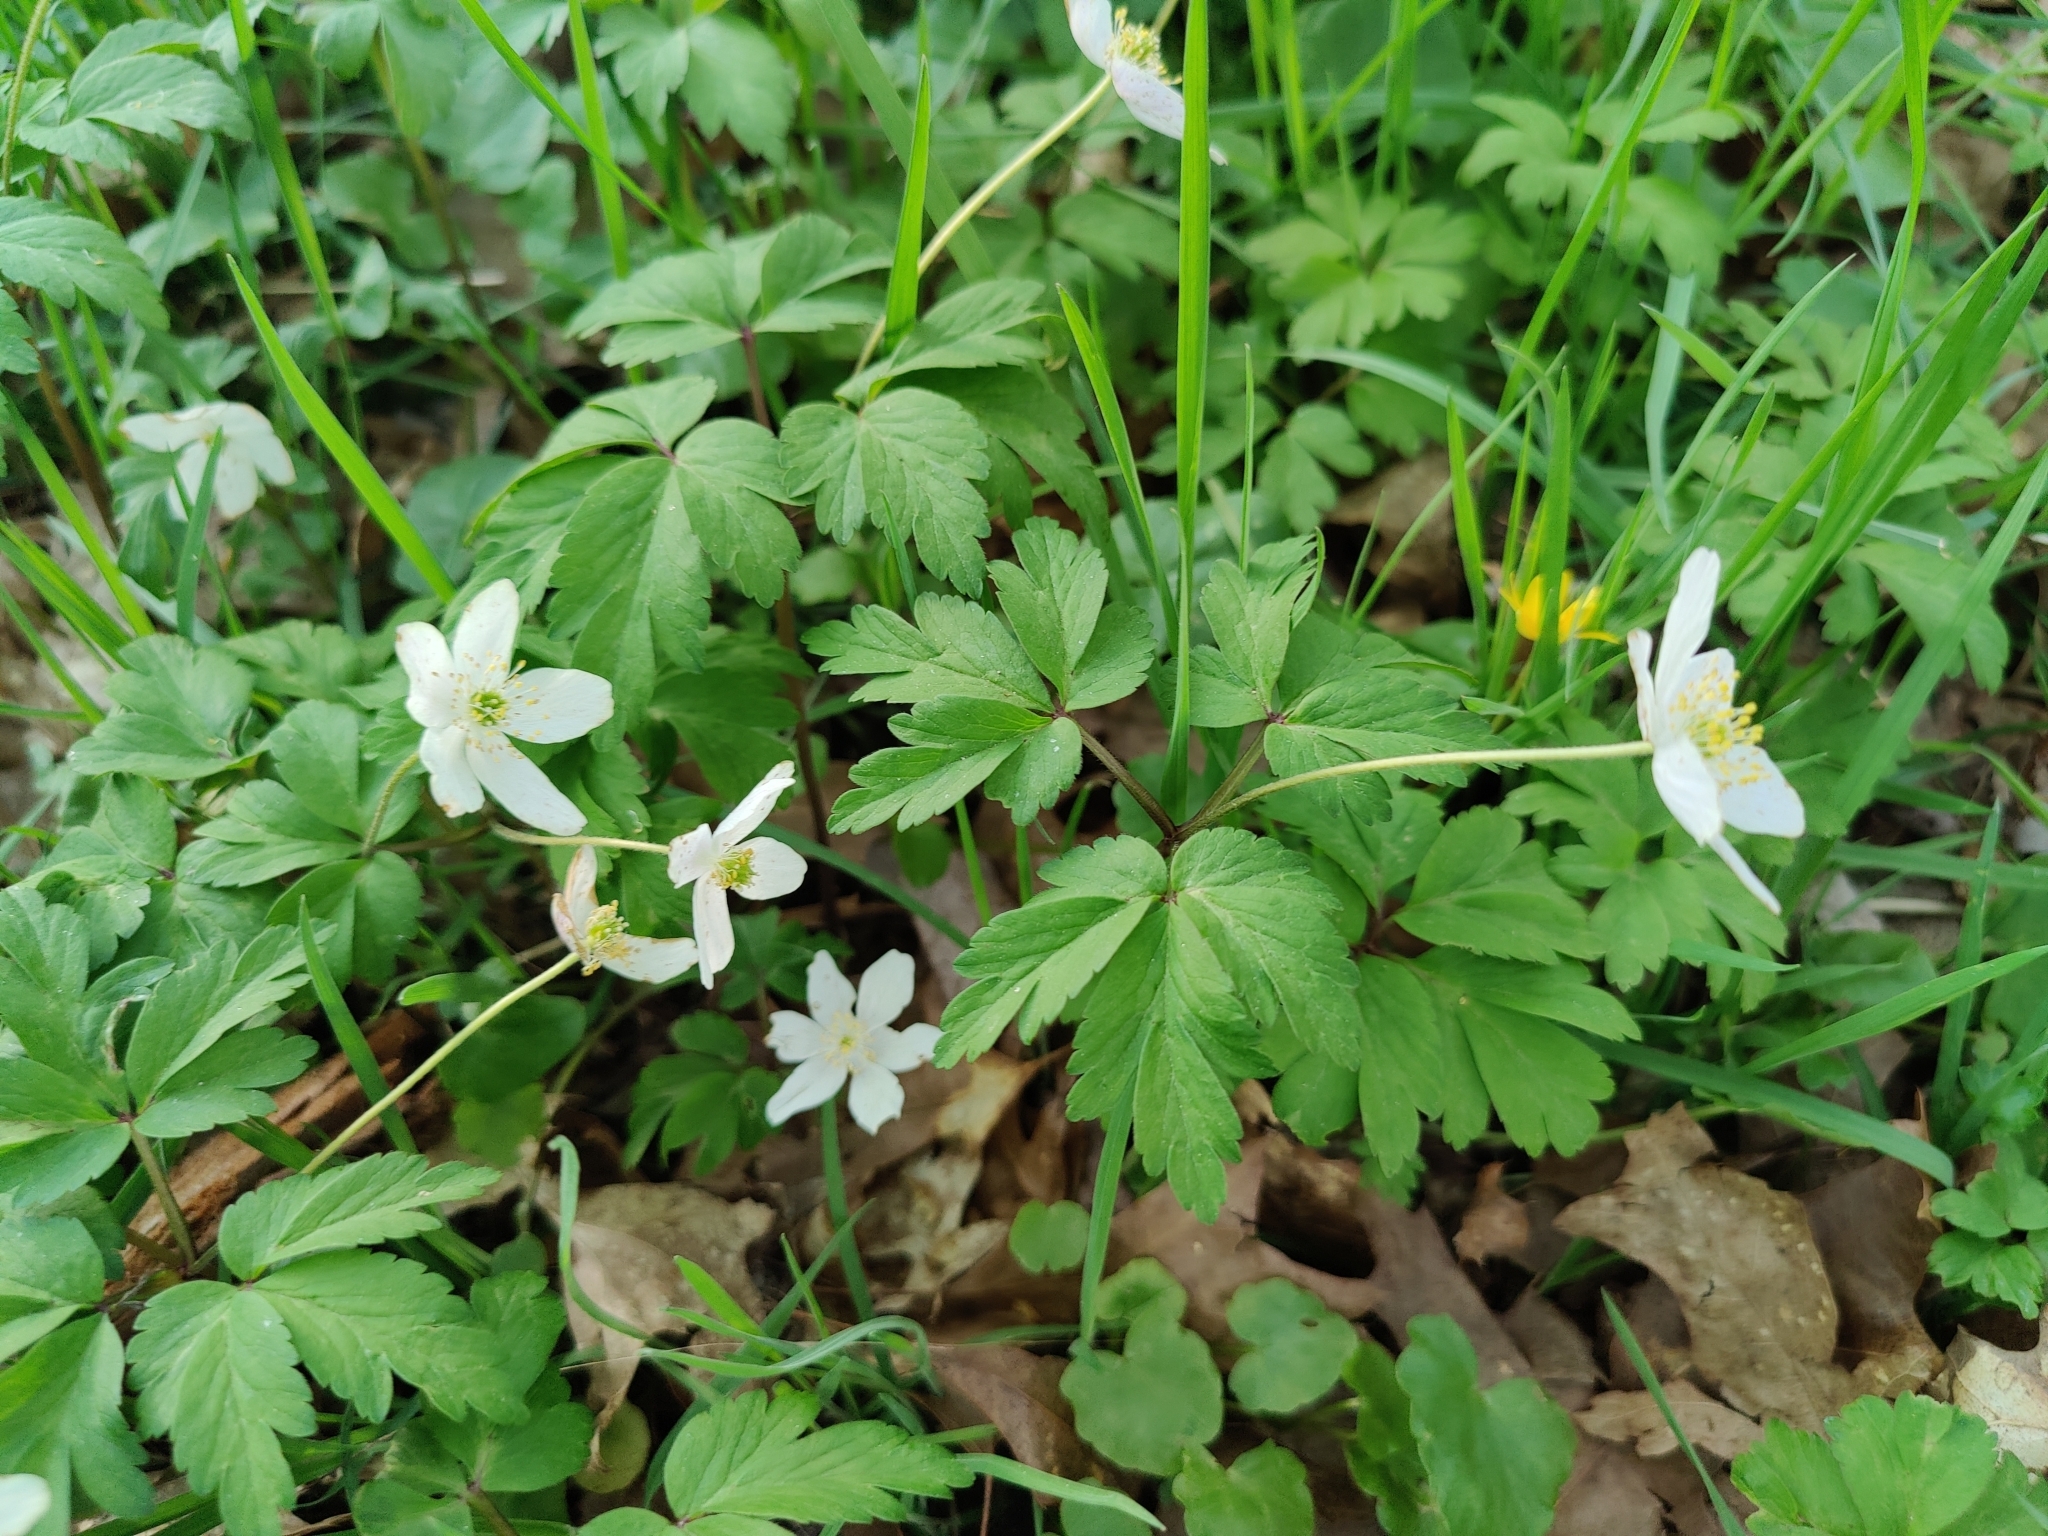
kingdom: Plantae
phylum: Tracheophyta
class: Magnoliopsida
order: Ranunculales
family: Ranunculaceae
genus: Anemone
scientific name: Anemone nemorosa
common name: Wood anemone
